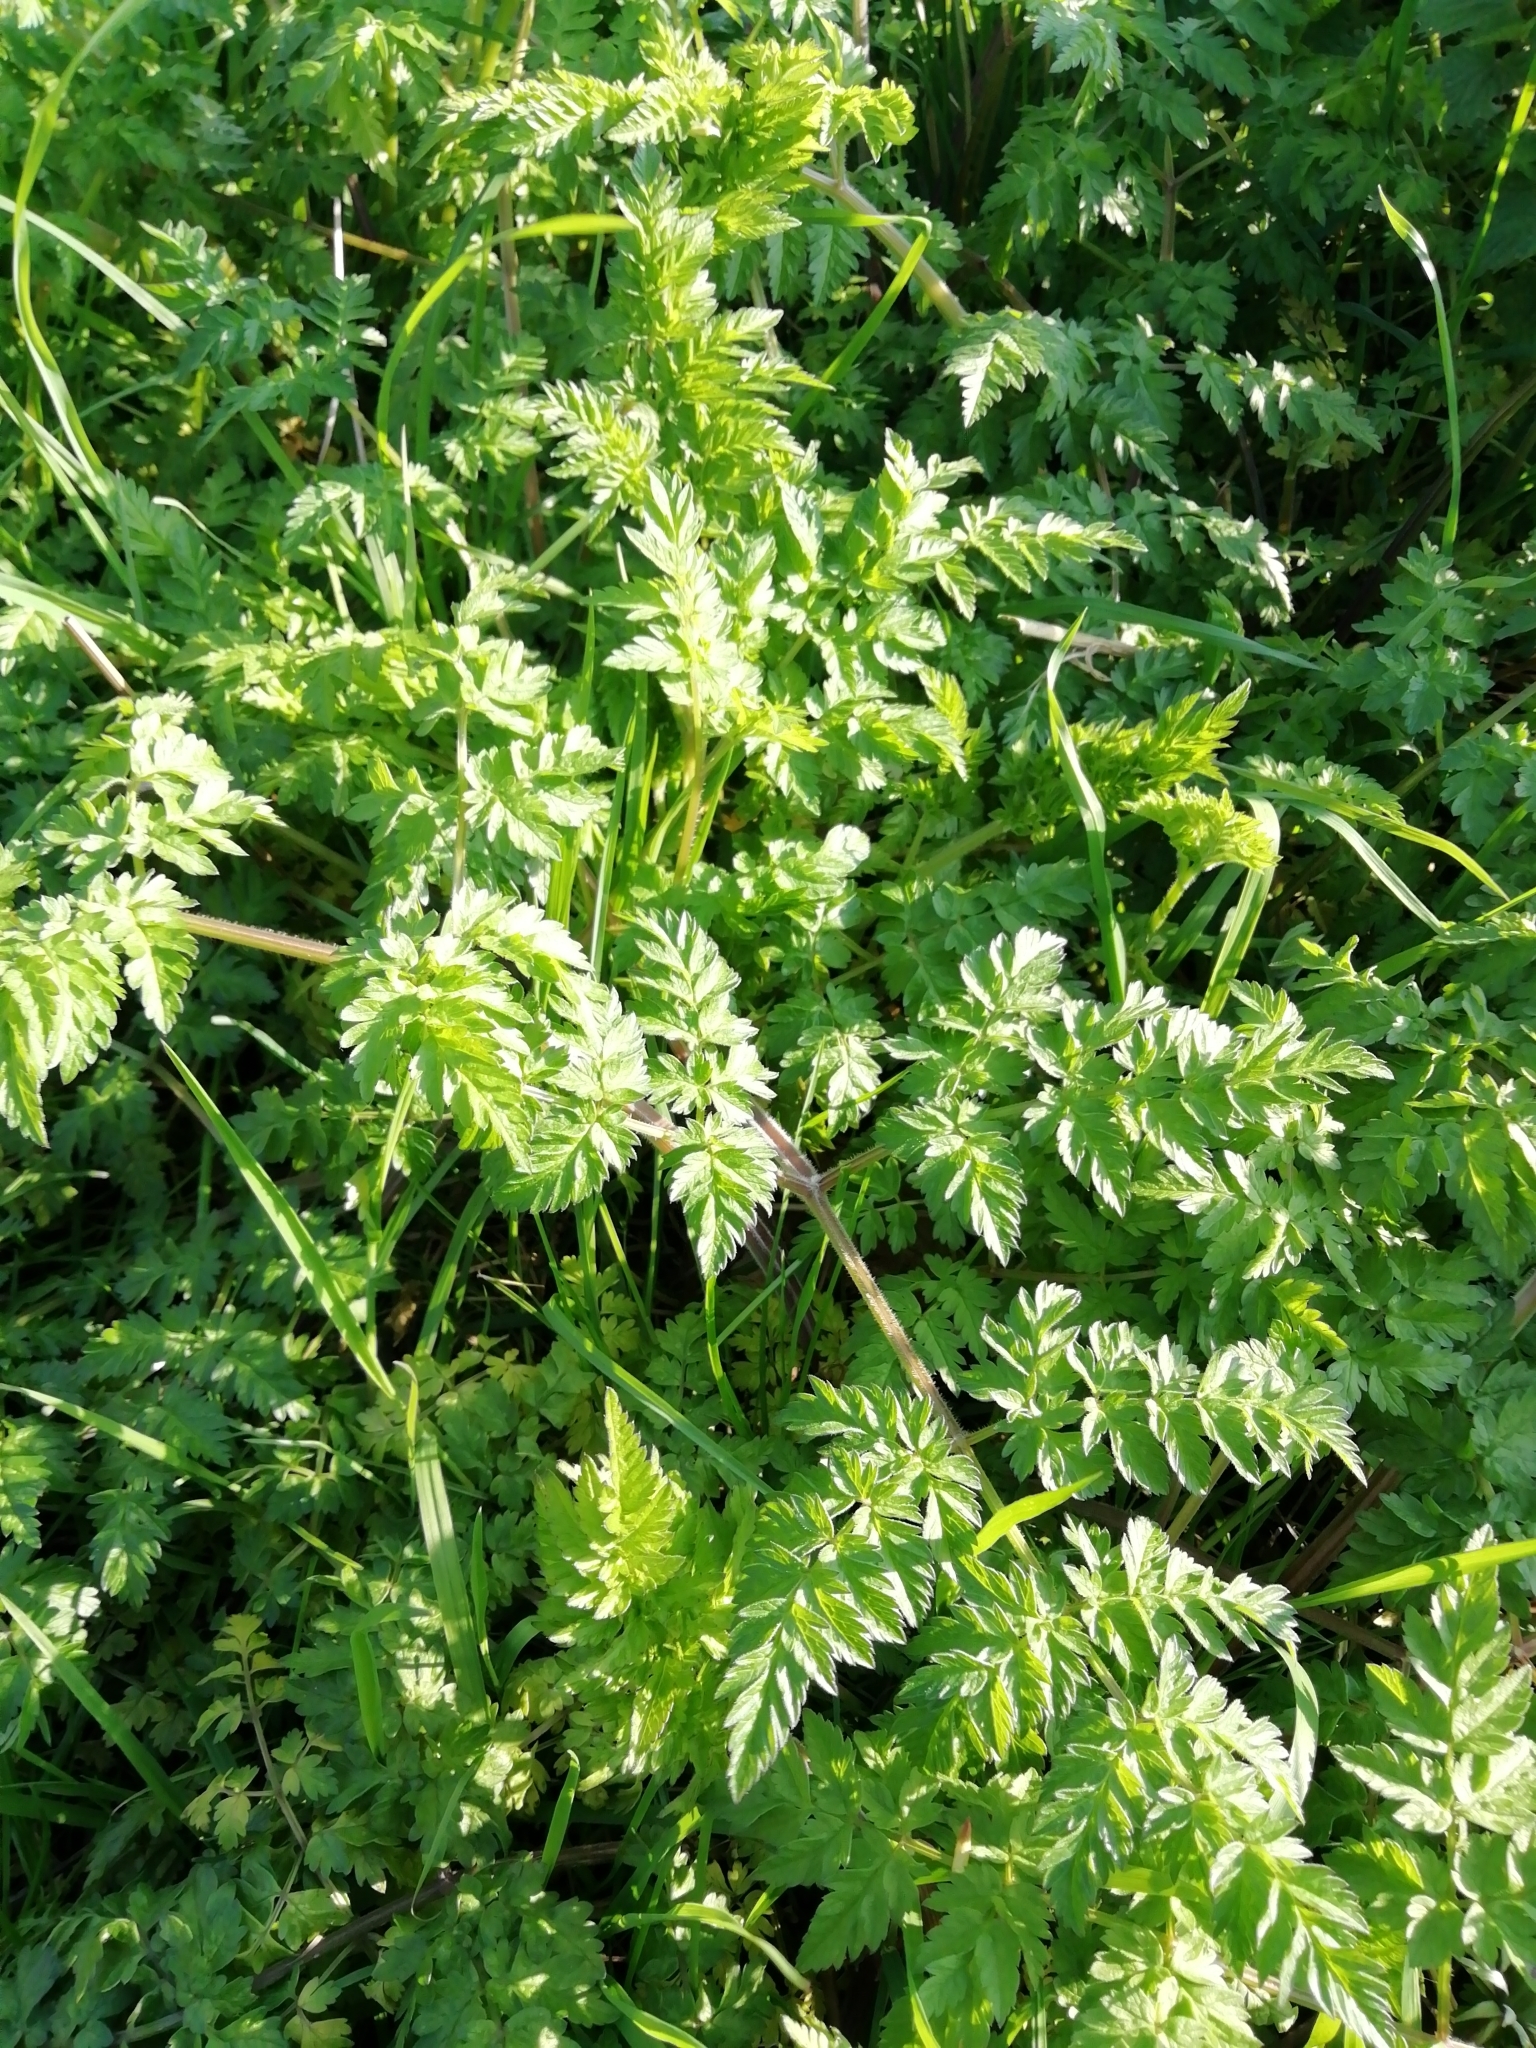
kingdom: Plantae
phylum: Tracheophyta
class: Magnoliopsida
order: Apiales
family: Apiaceae
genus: Anthriscus
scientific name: Anthriscus sylvestris
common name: Cow parsley
